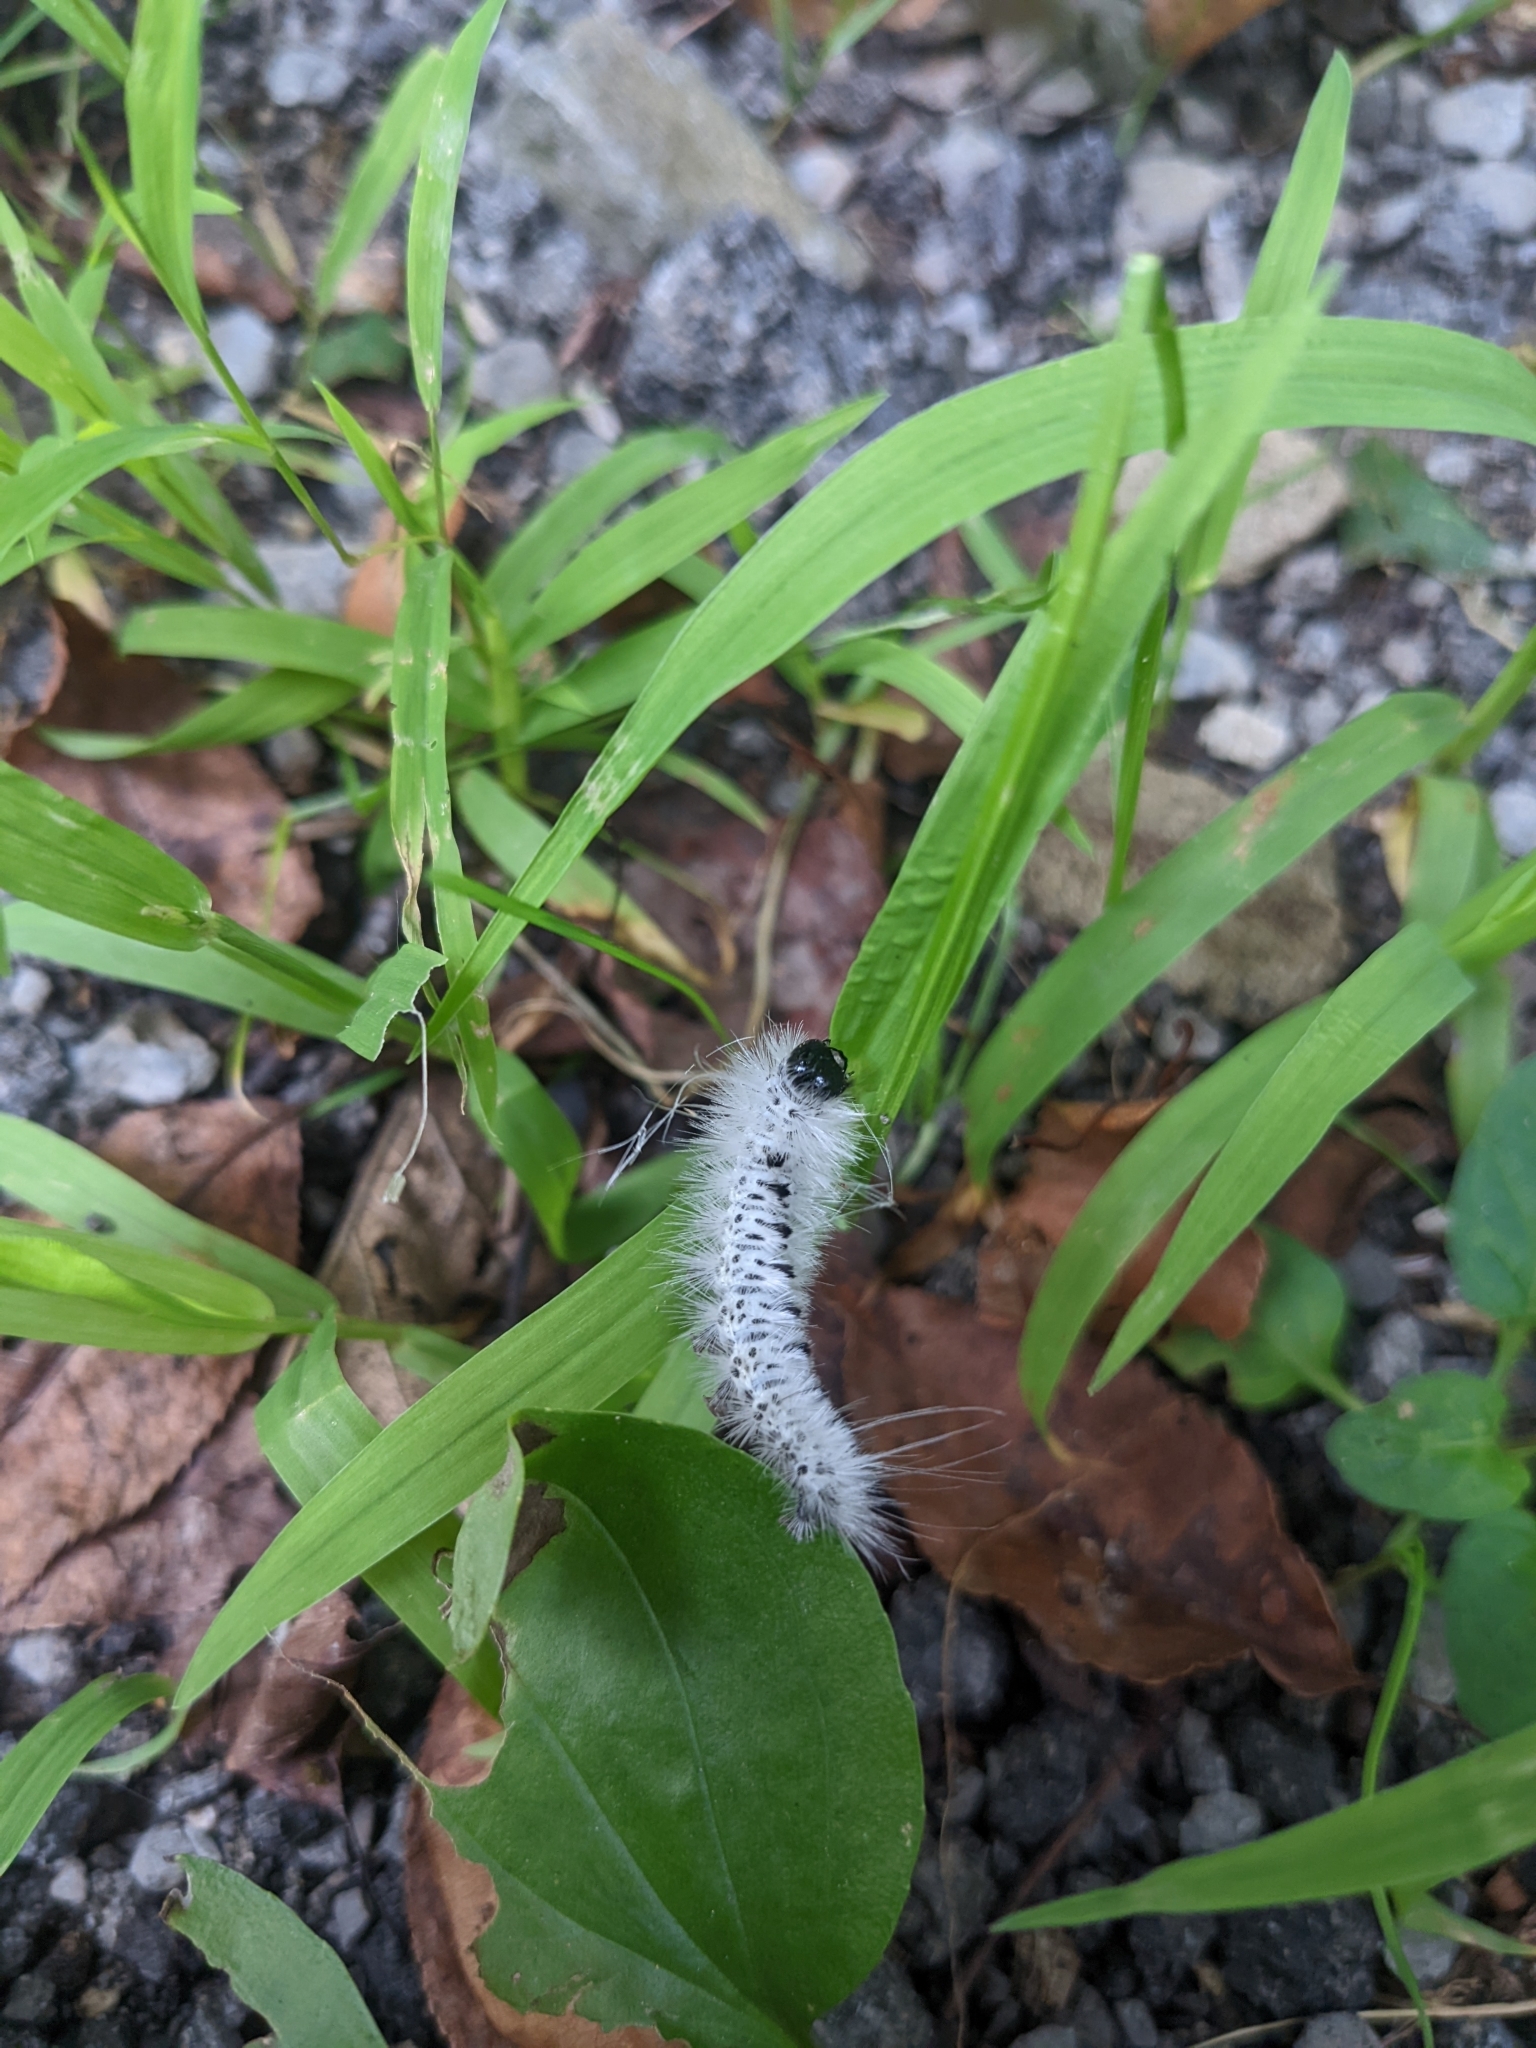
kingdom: Animalia
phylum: Arthropoda
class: Insecta
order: Lepidoptera
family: Erebidae
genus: Lophocampa
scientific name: Lophocampa caryae
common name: Hickory tussock moth
